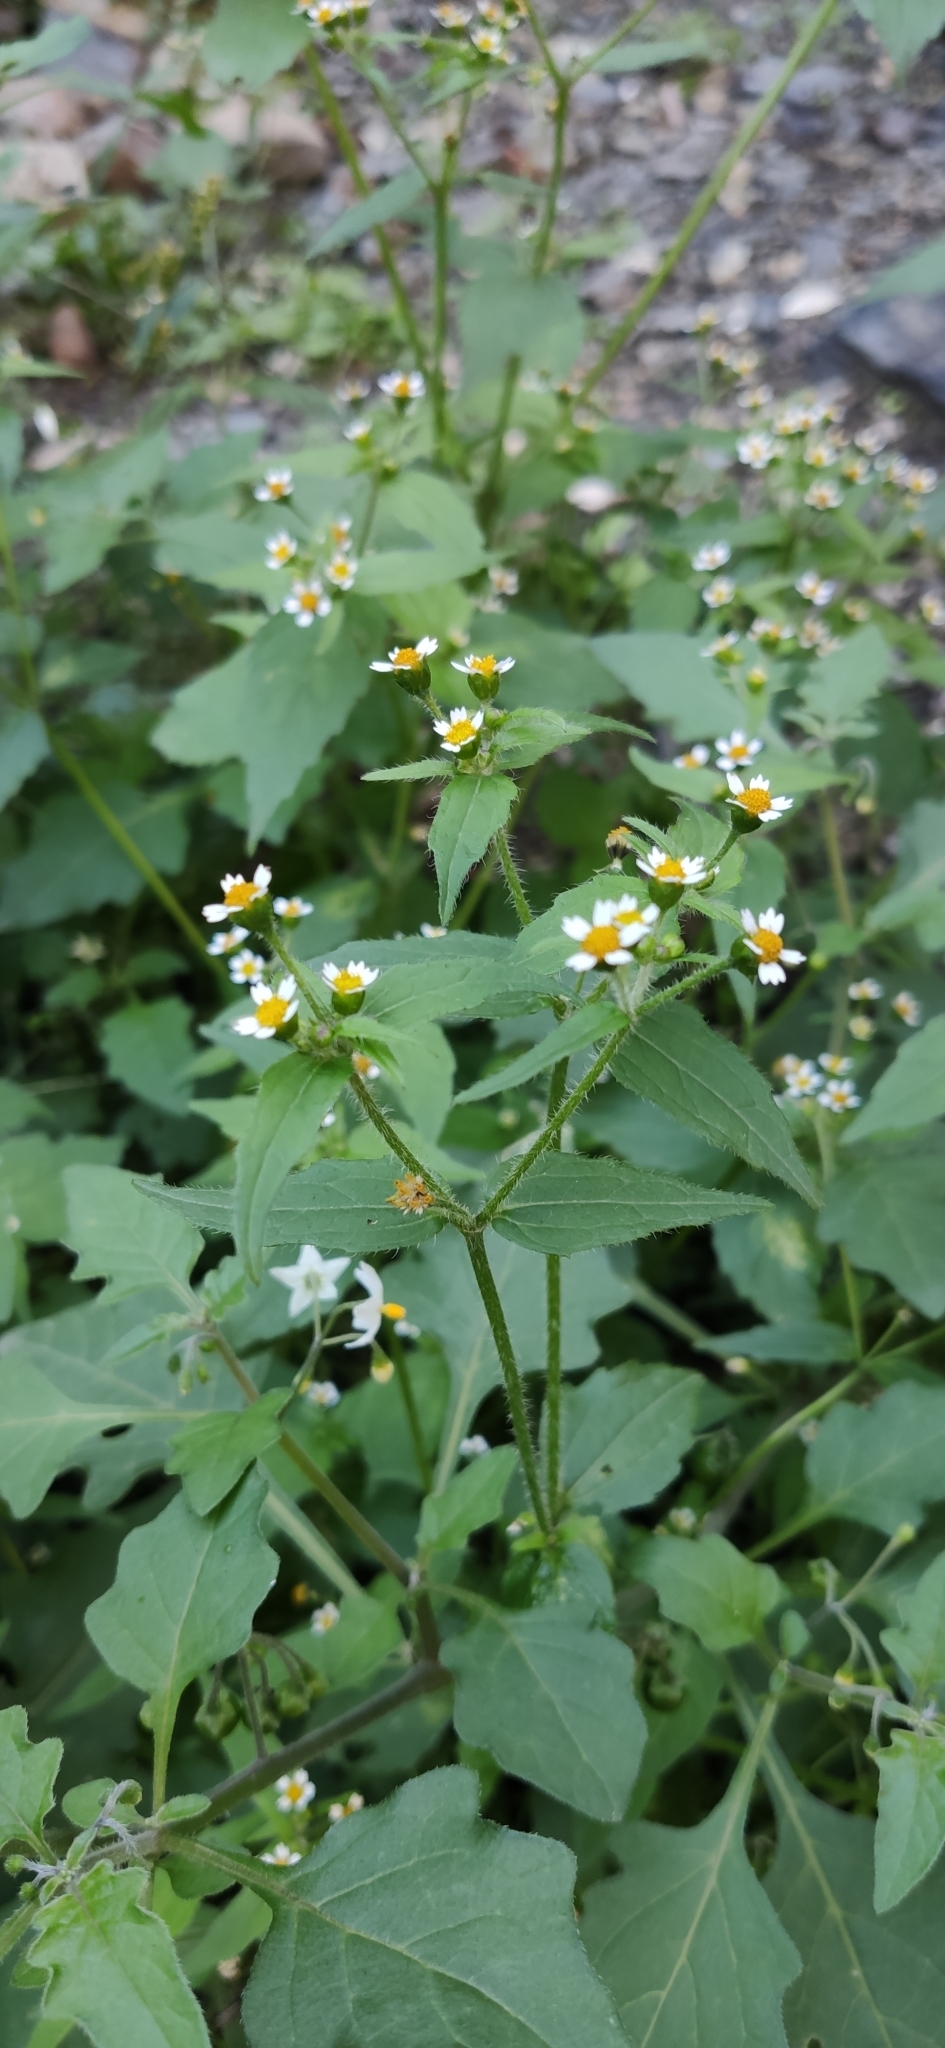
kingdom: Plantae
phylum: Tracheophyta
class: Magnoliopsida
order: Asterales
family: Asteraceae
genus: Galinsoga
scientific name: Galinsoga quadriradiata
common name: Shaggy soldier
